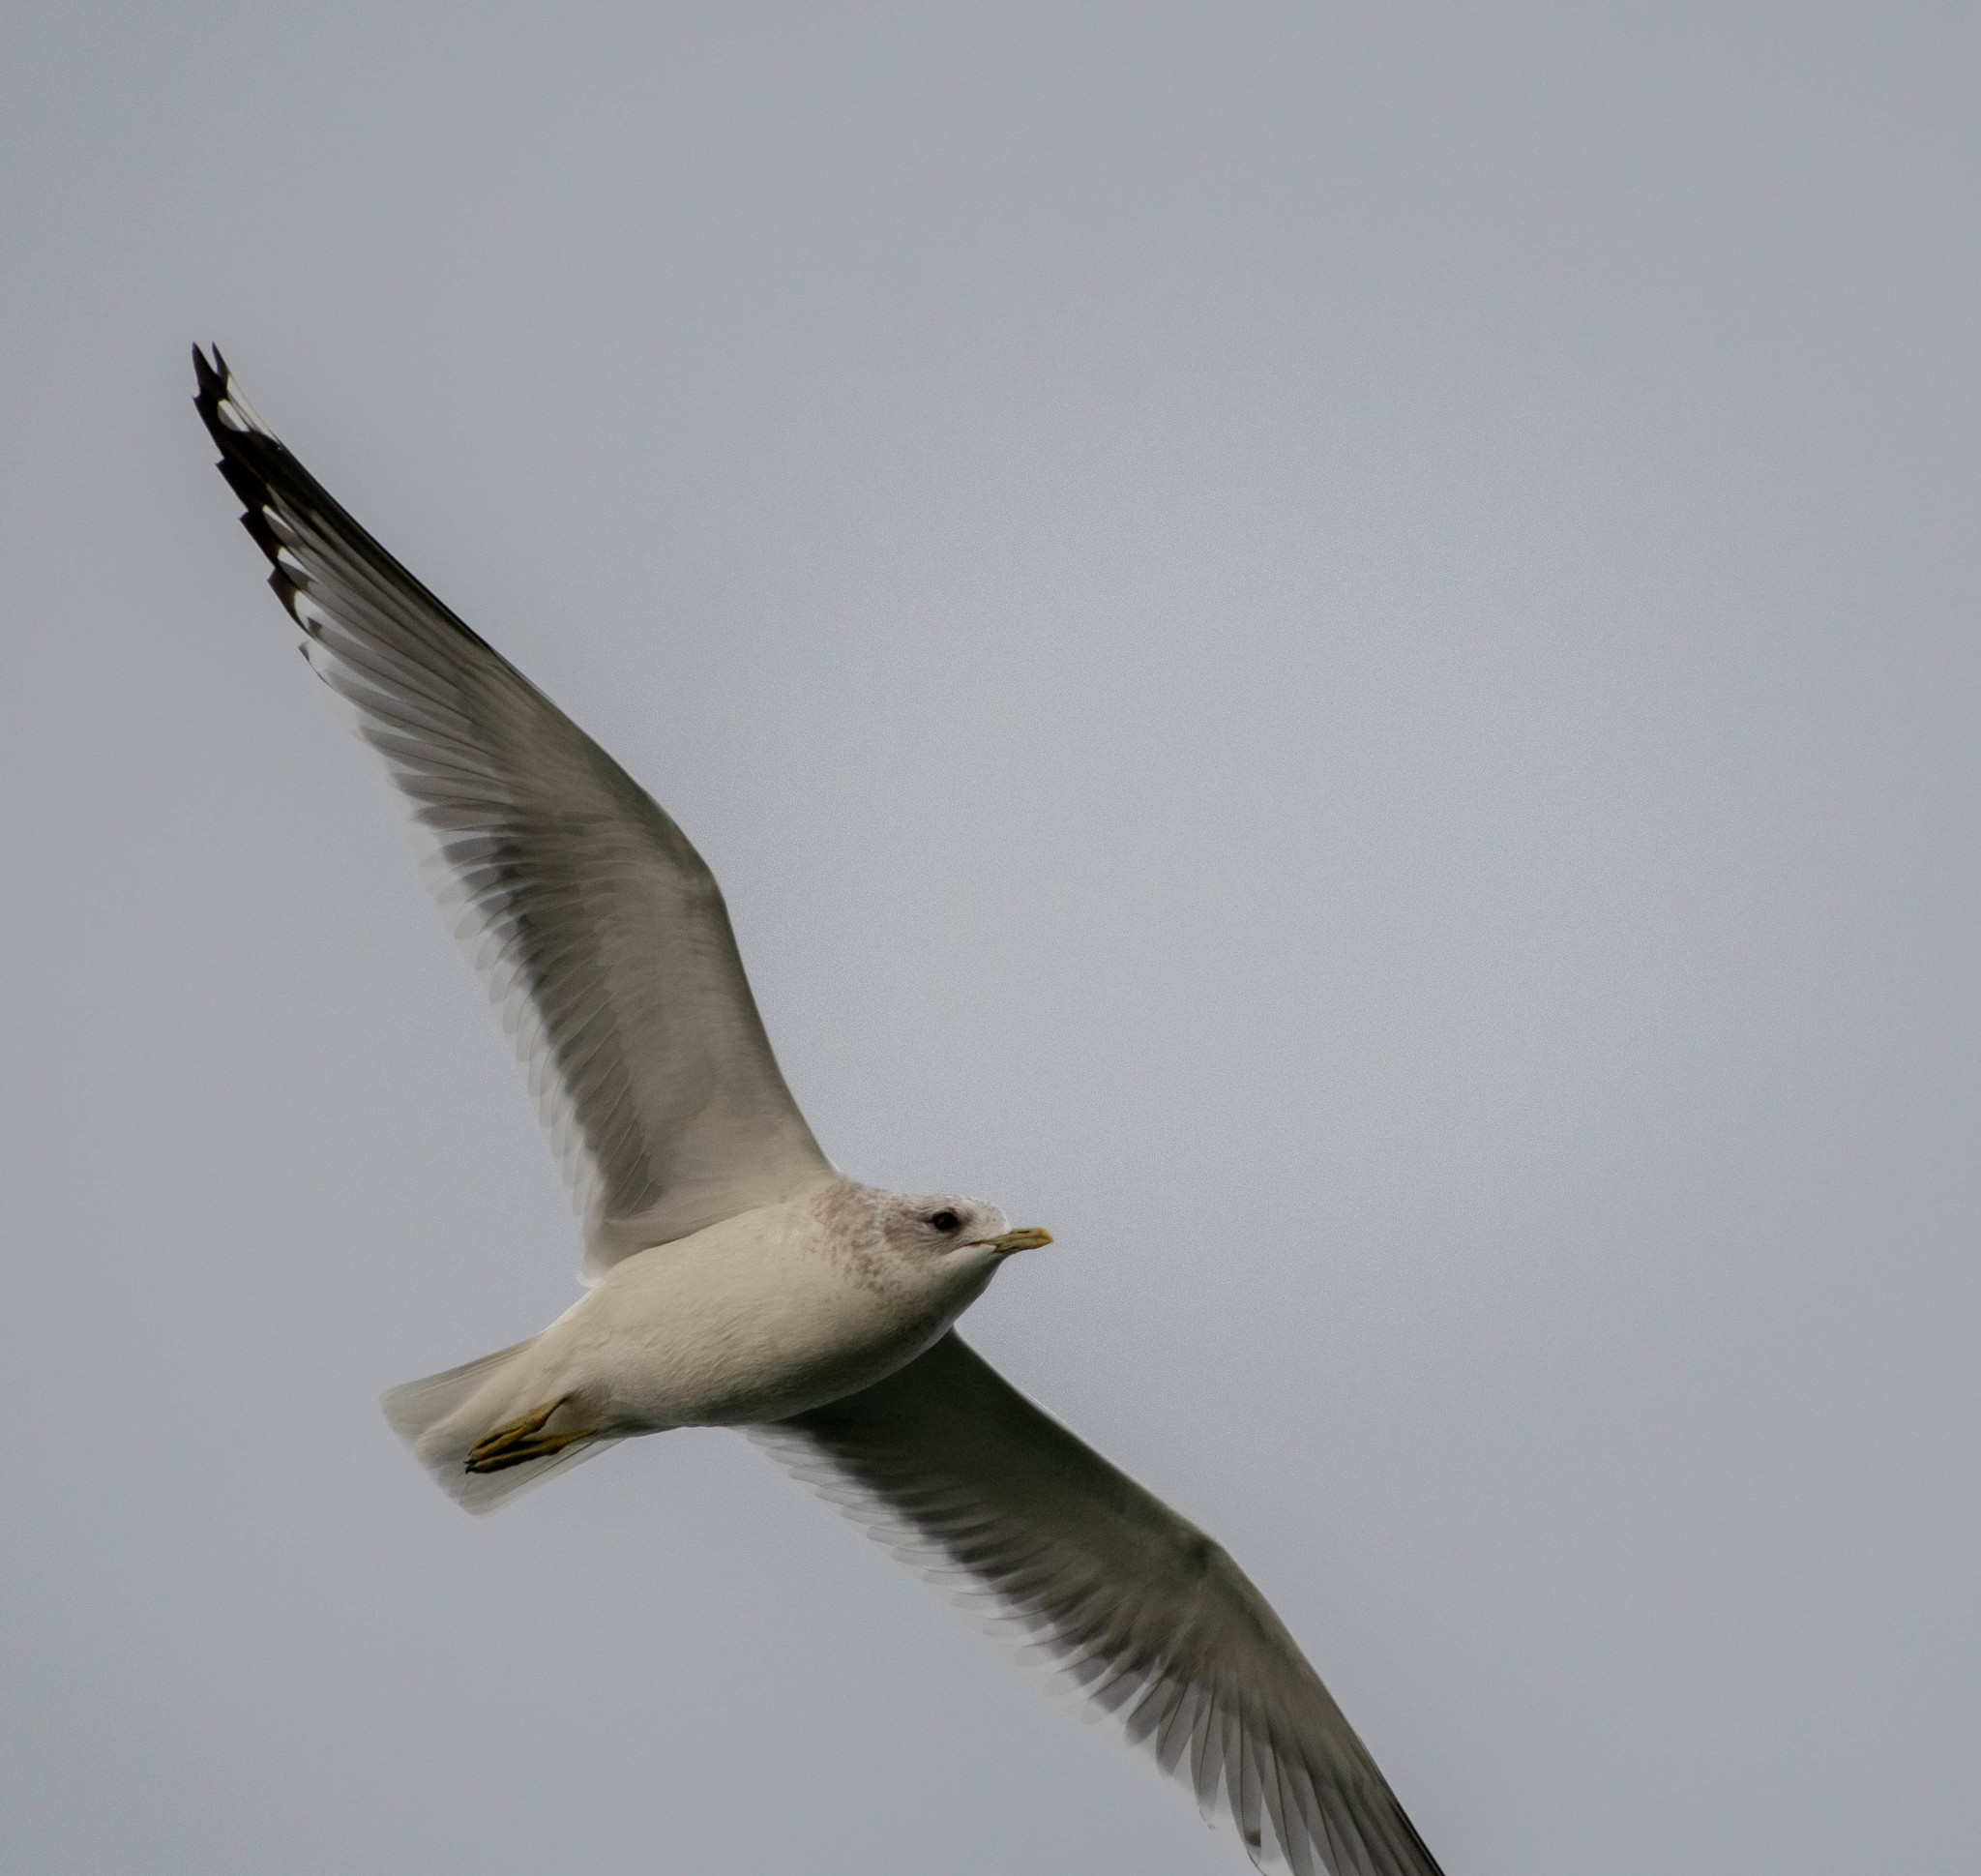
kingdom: Animalia
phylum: Chordata
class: Aves
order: Charadriiformes
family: Laridae
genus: Larus
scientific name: Larus brachyrhynchus
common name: Short-billed gull
